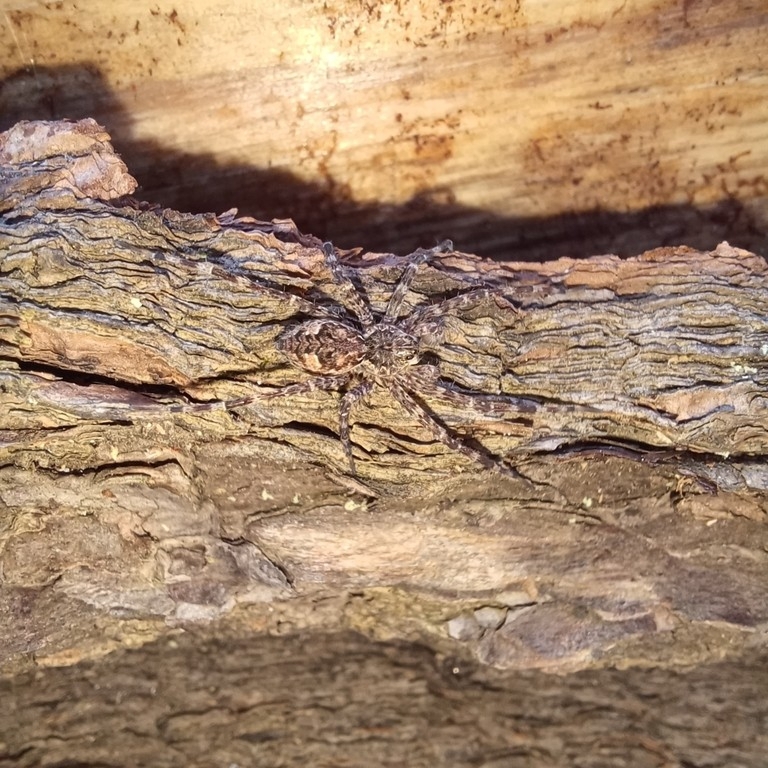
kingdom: Animalia
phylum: Arthropoda
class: Arachnida
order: Araneae
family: Pisauridae
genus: Dolomedes
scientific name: Dolomedes tenebrosus
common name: Dark fishing spider
